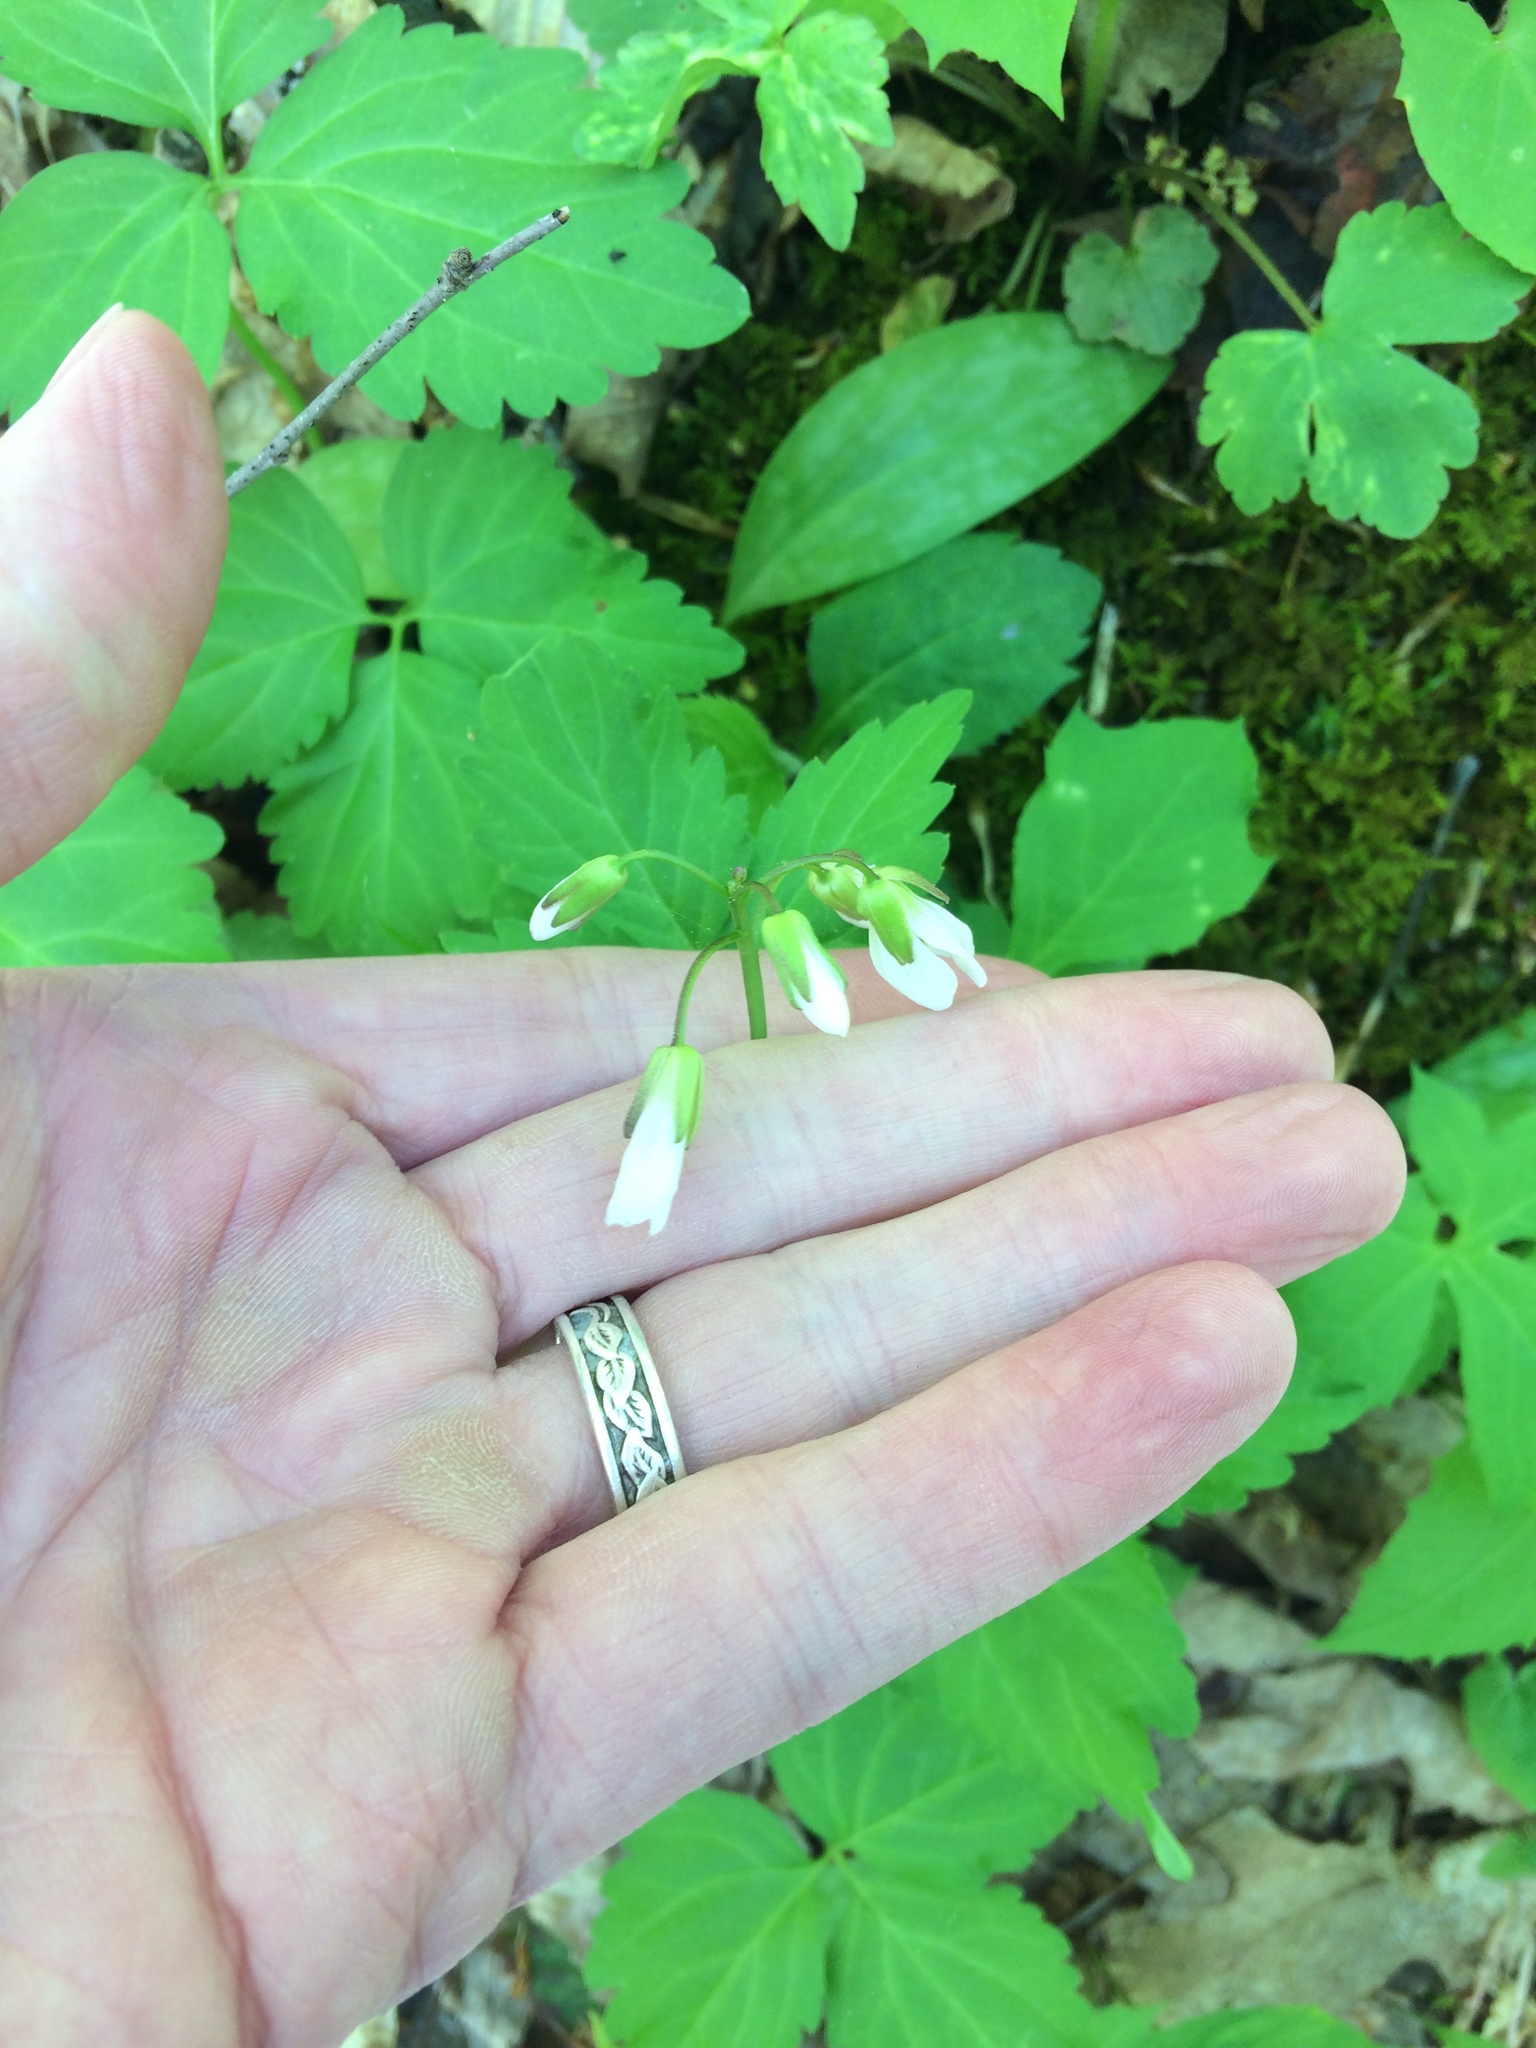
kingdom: Plantae
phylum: Tracheophyta
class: Magnoliopsida
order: Brassicales
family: Brassicaceae
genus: Cardamine
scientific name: Cardamine diphylla
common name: Broad-leaved toothwort
